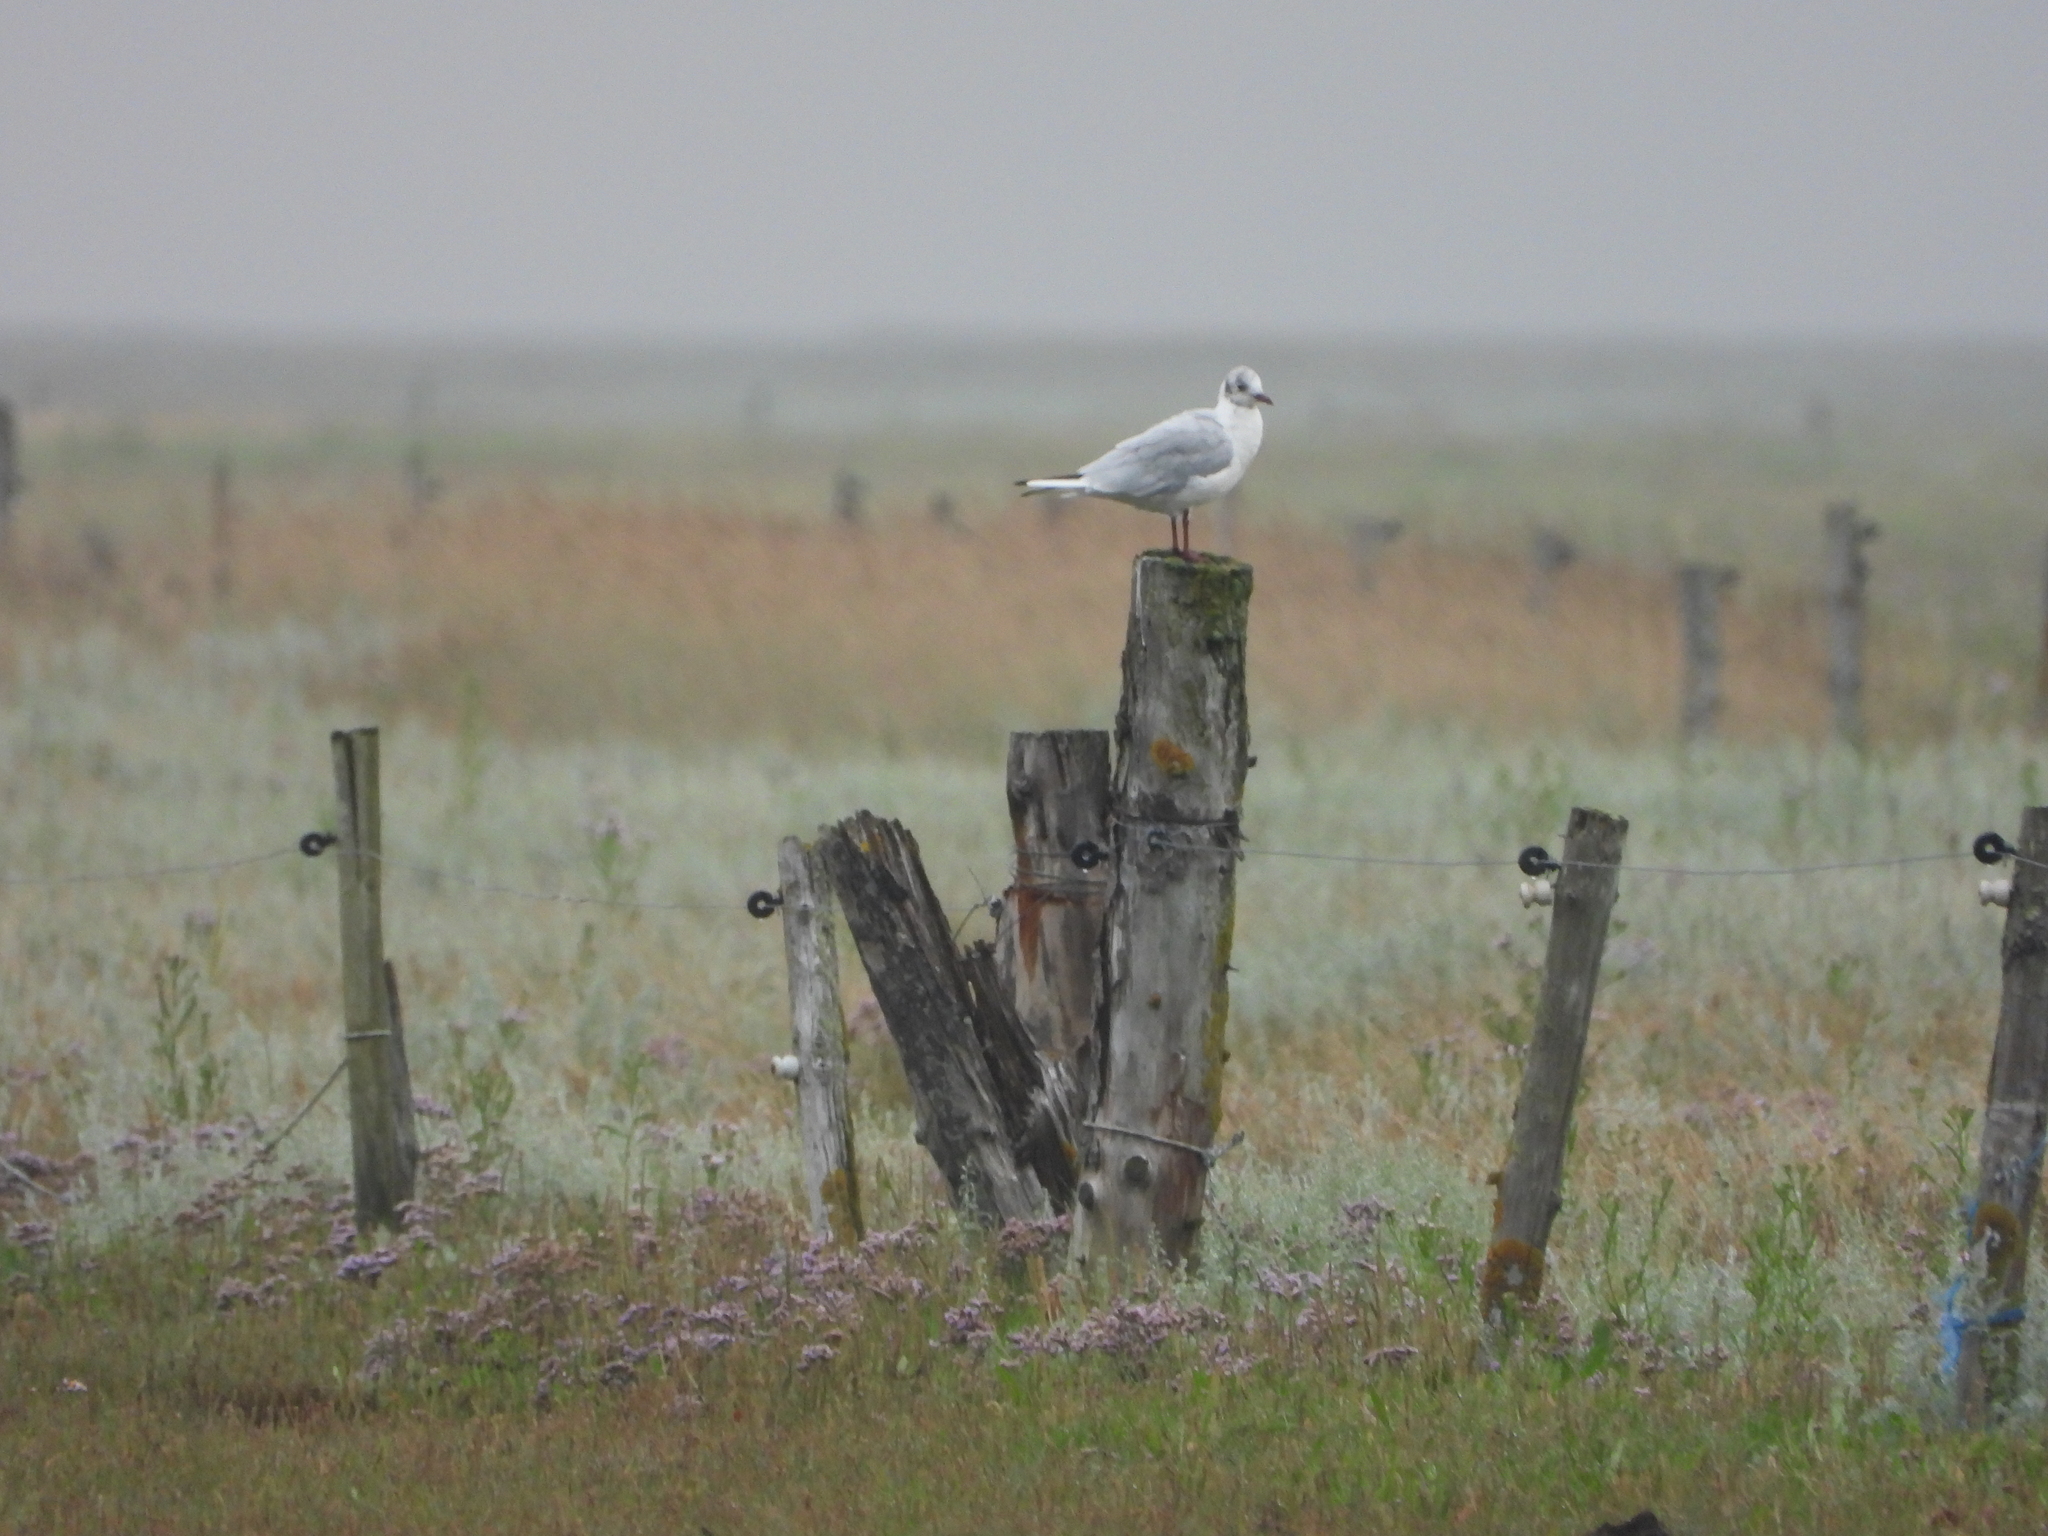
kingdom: Animalia
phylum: Chordata
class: Aves
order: Charadriiformes
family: Laridae
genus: Chroicocephalus
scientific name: Chroicocephalus ridibundus
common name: Black-headed gull
